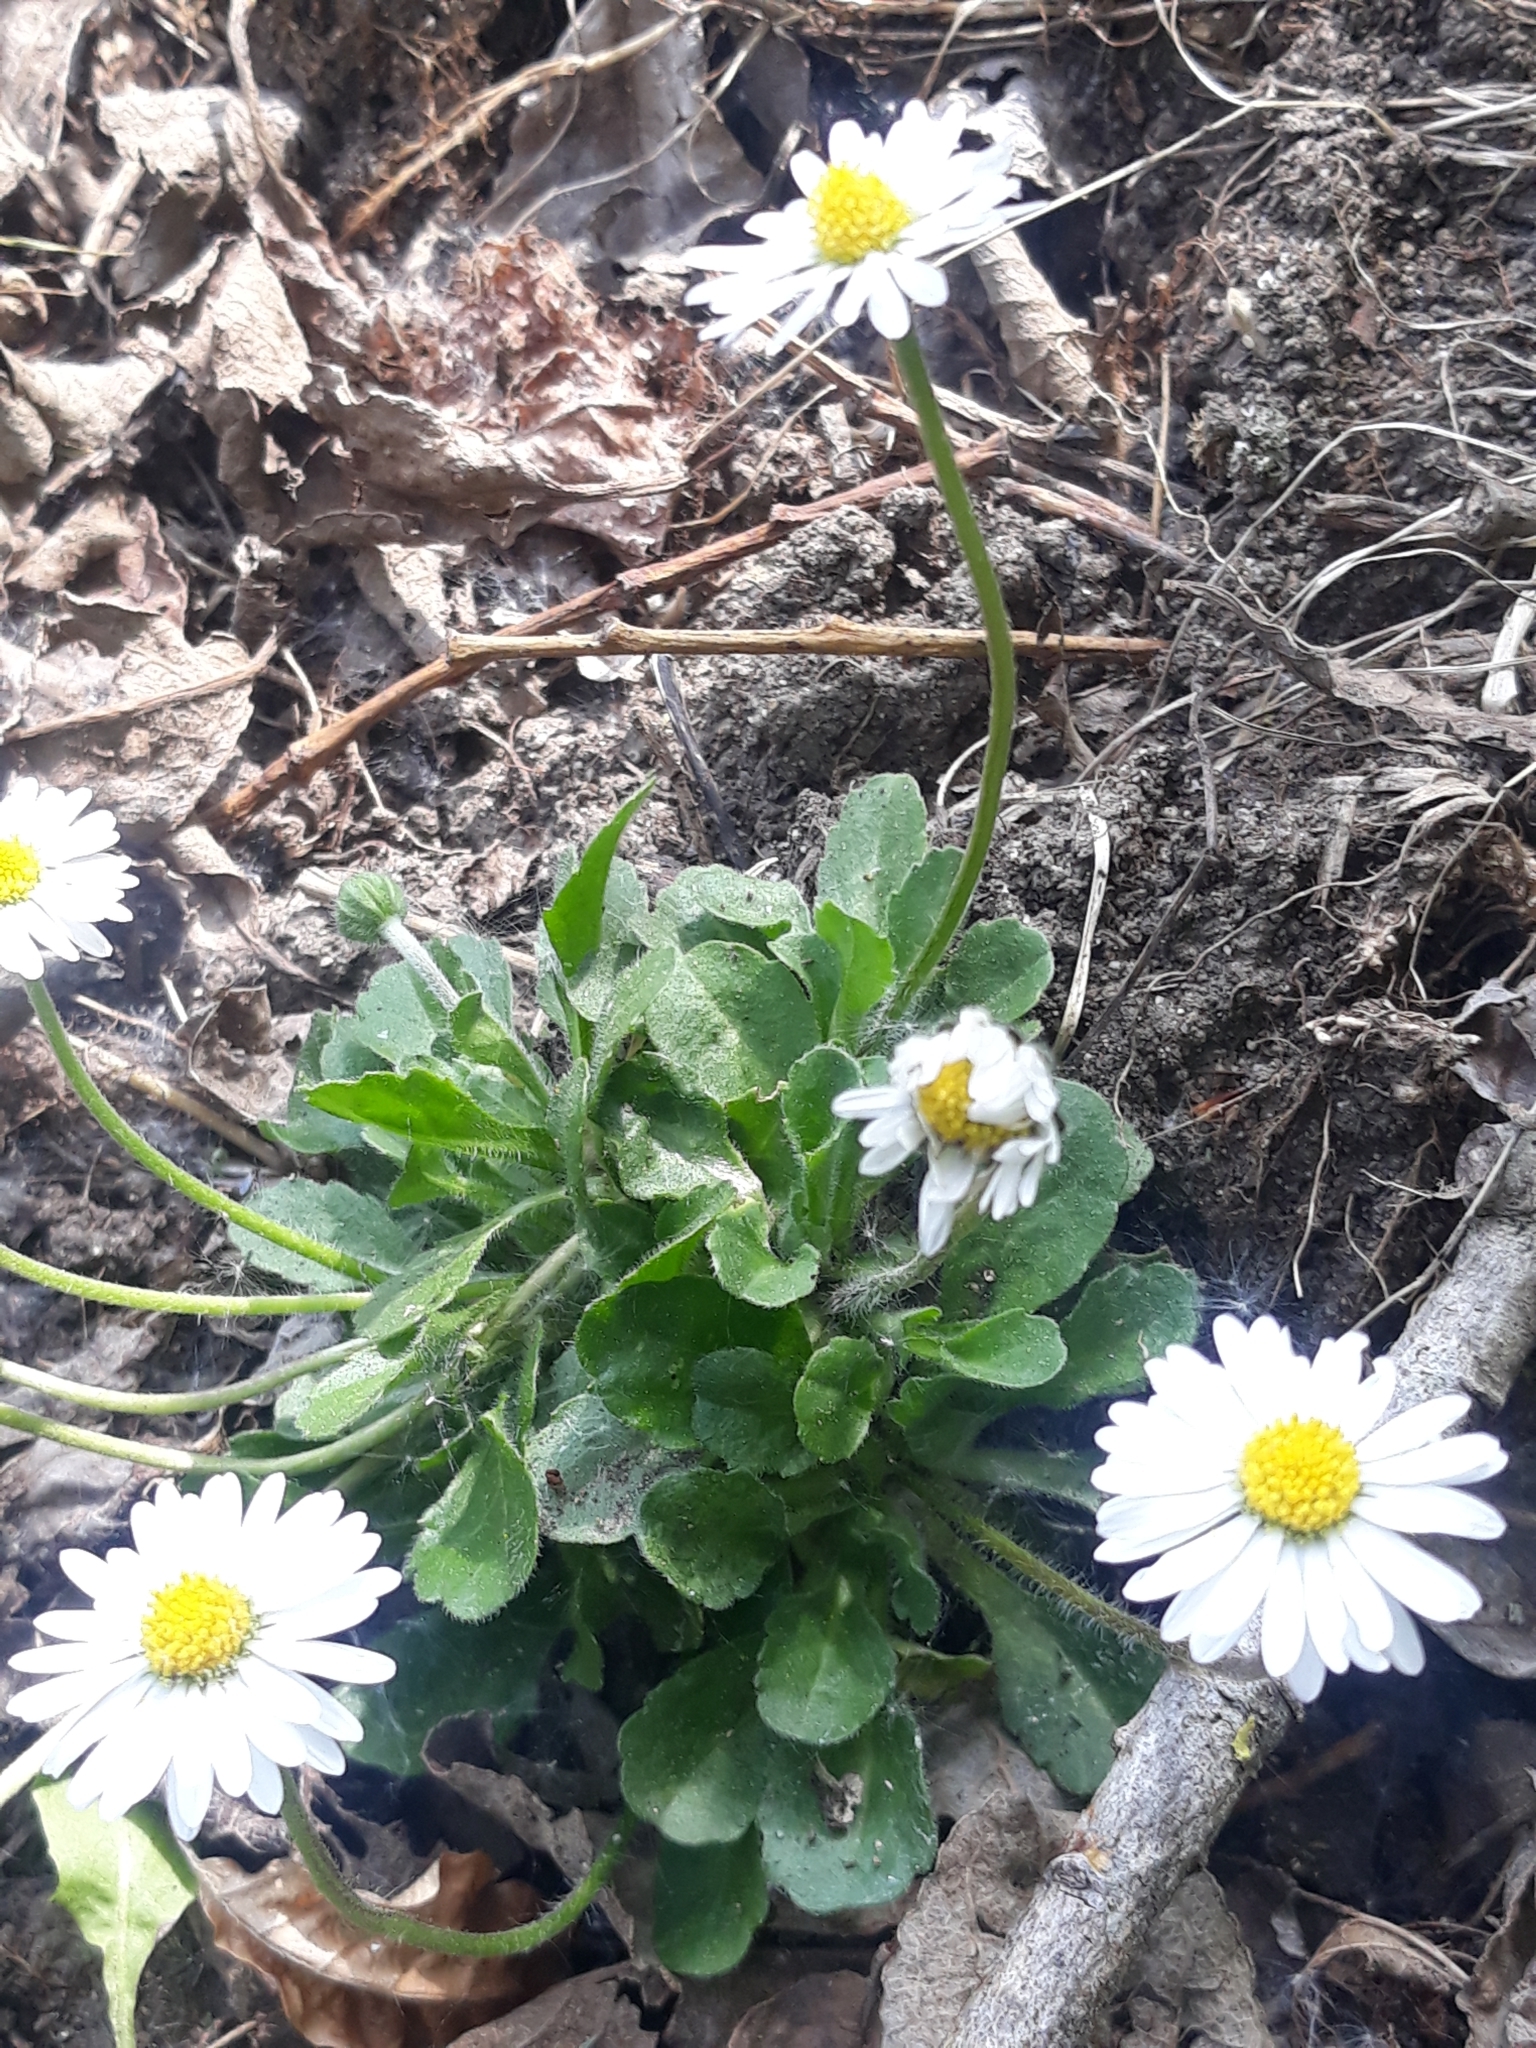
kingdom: Plantae
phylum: Tracheophyta
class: Magnoliopsida
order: Asterales
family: Asteraceae
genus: Bellis
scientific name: Bellis perennis
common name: Lawndaisy
